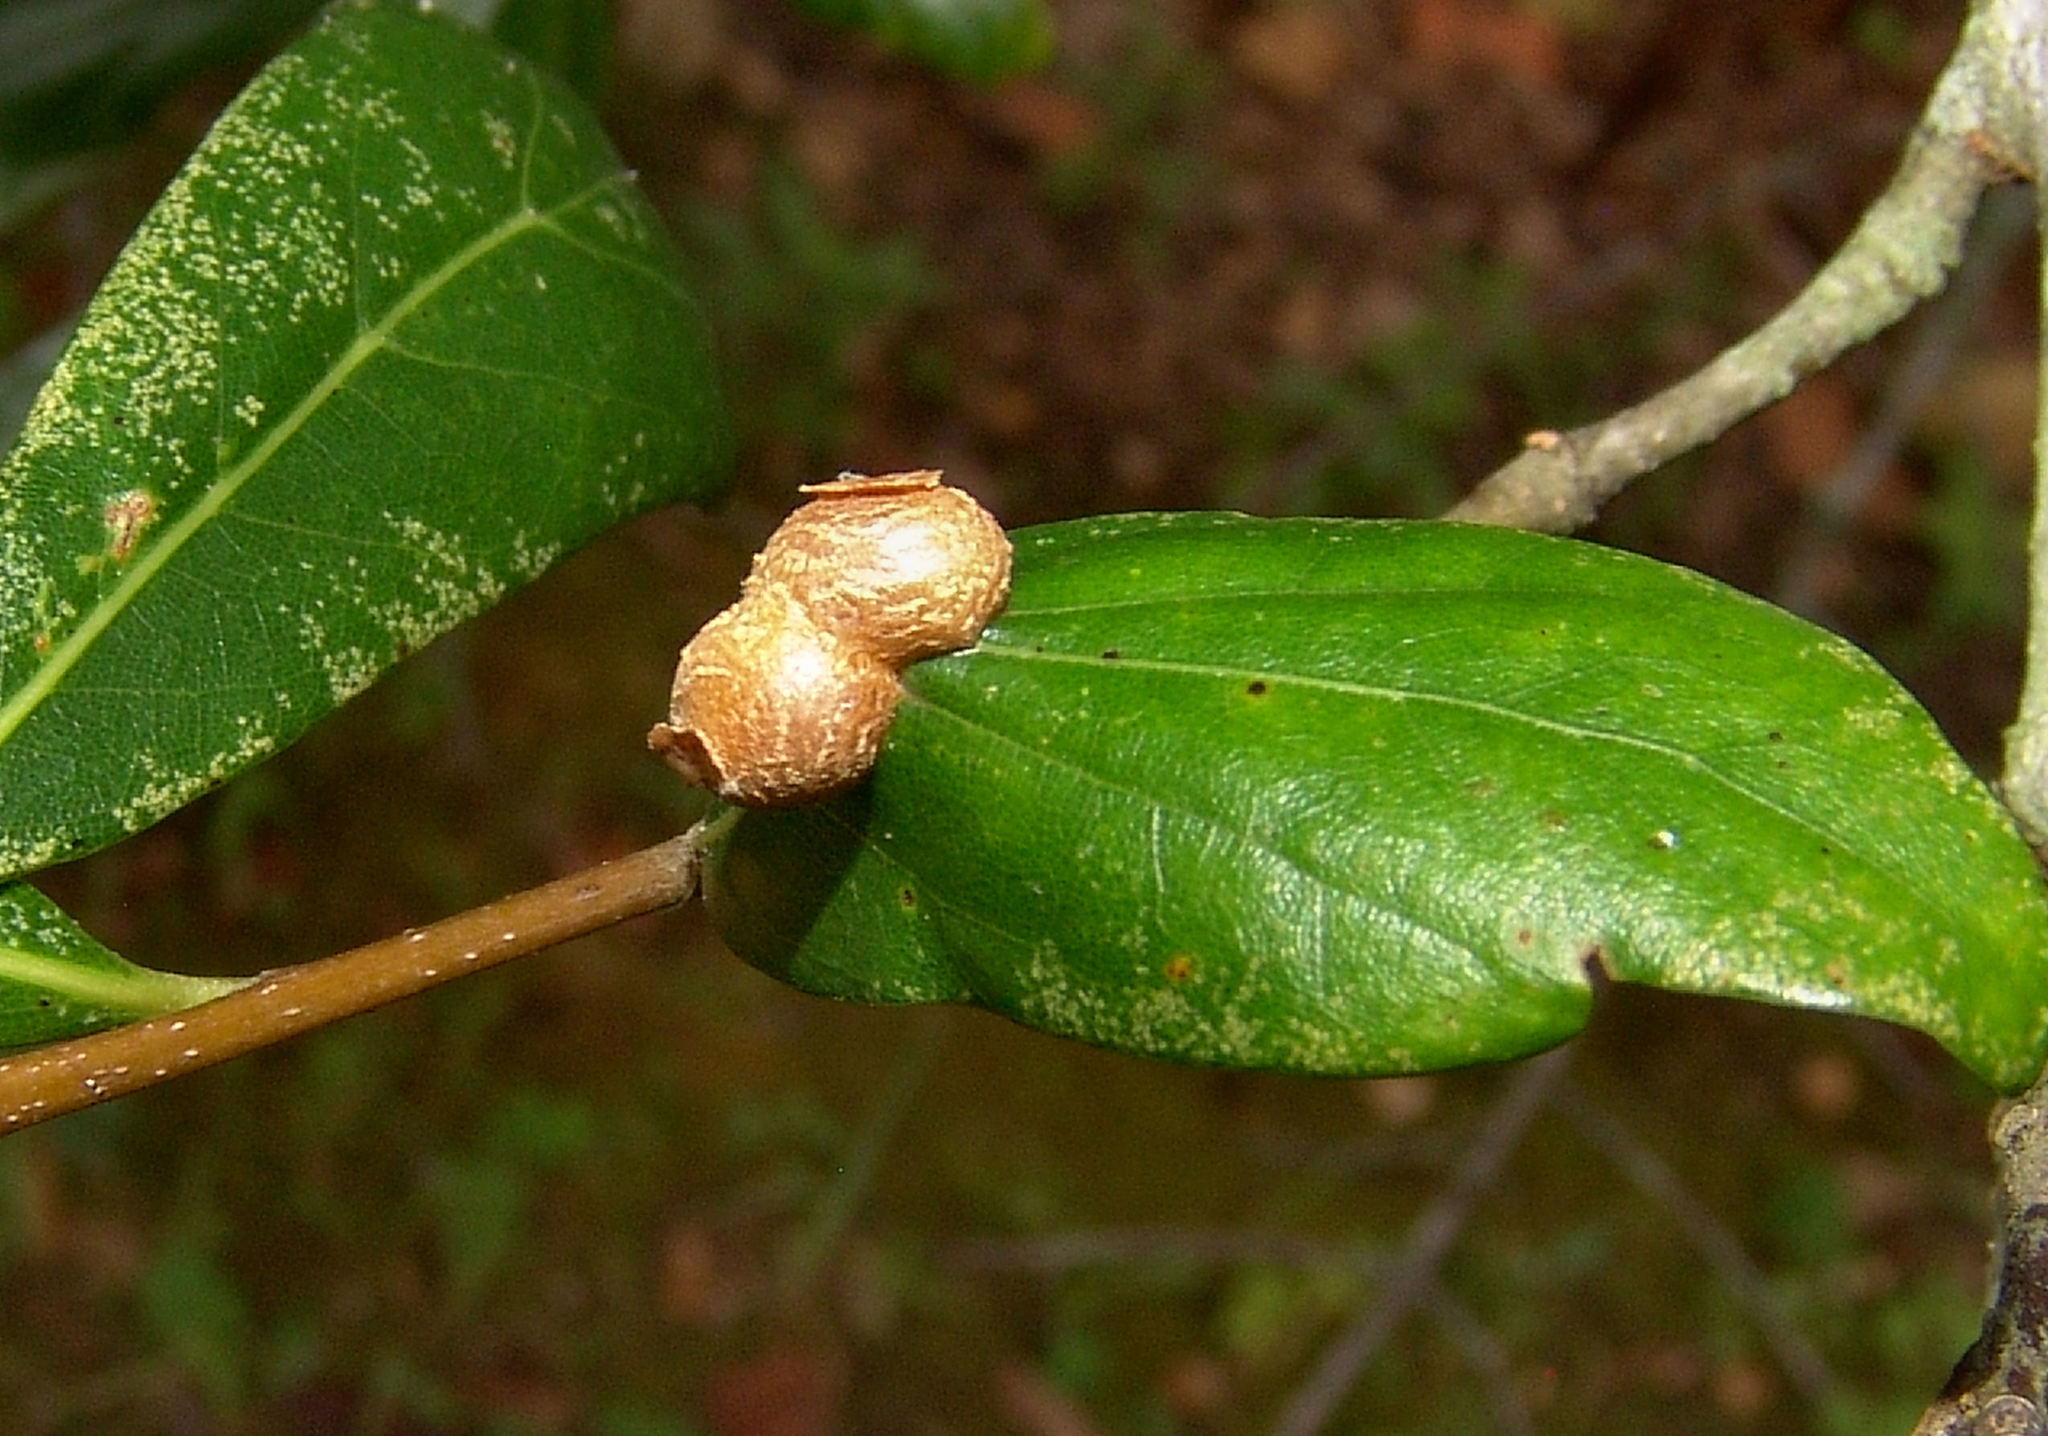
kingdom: Animalia
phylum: Arthropoda
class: Insecta
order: Diptera
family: Cecidomyiidae
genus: Polystepha
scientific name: Polystepha pilulae
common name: Oak leaf gall midge
